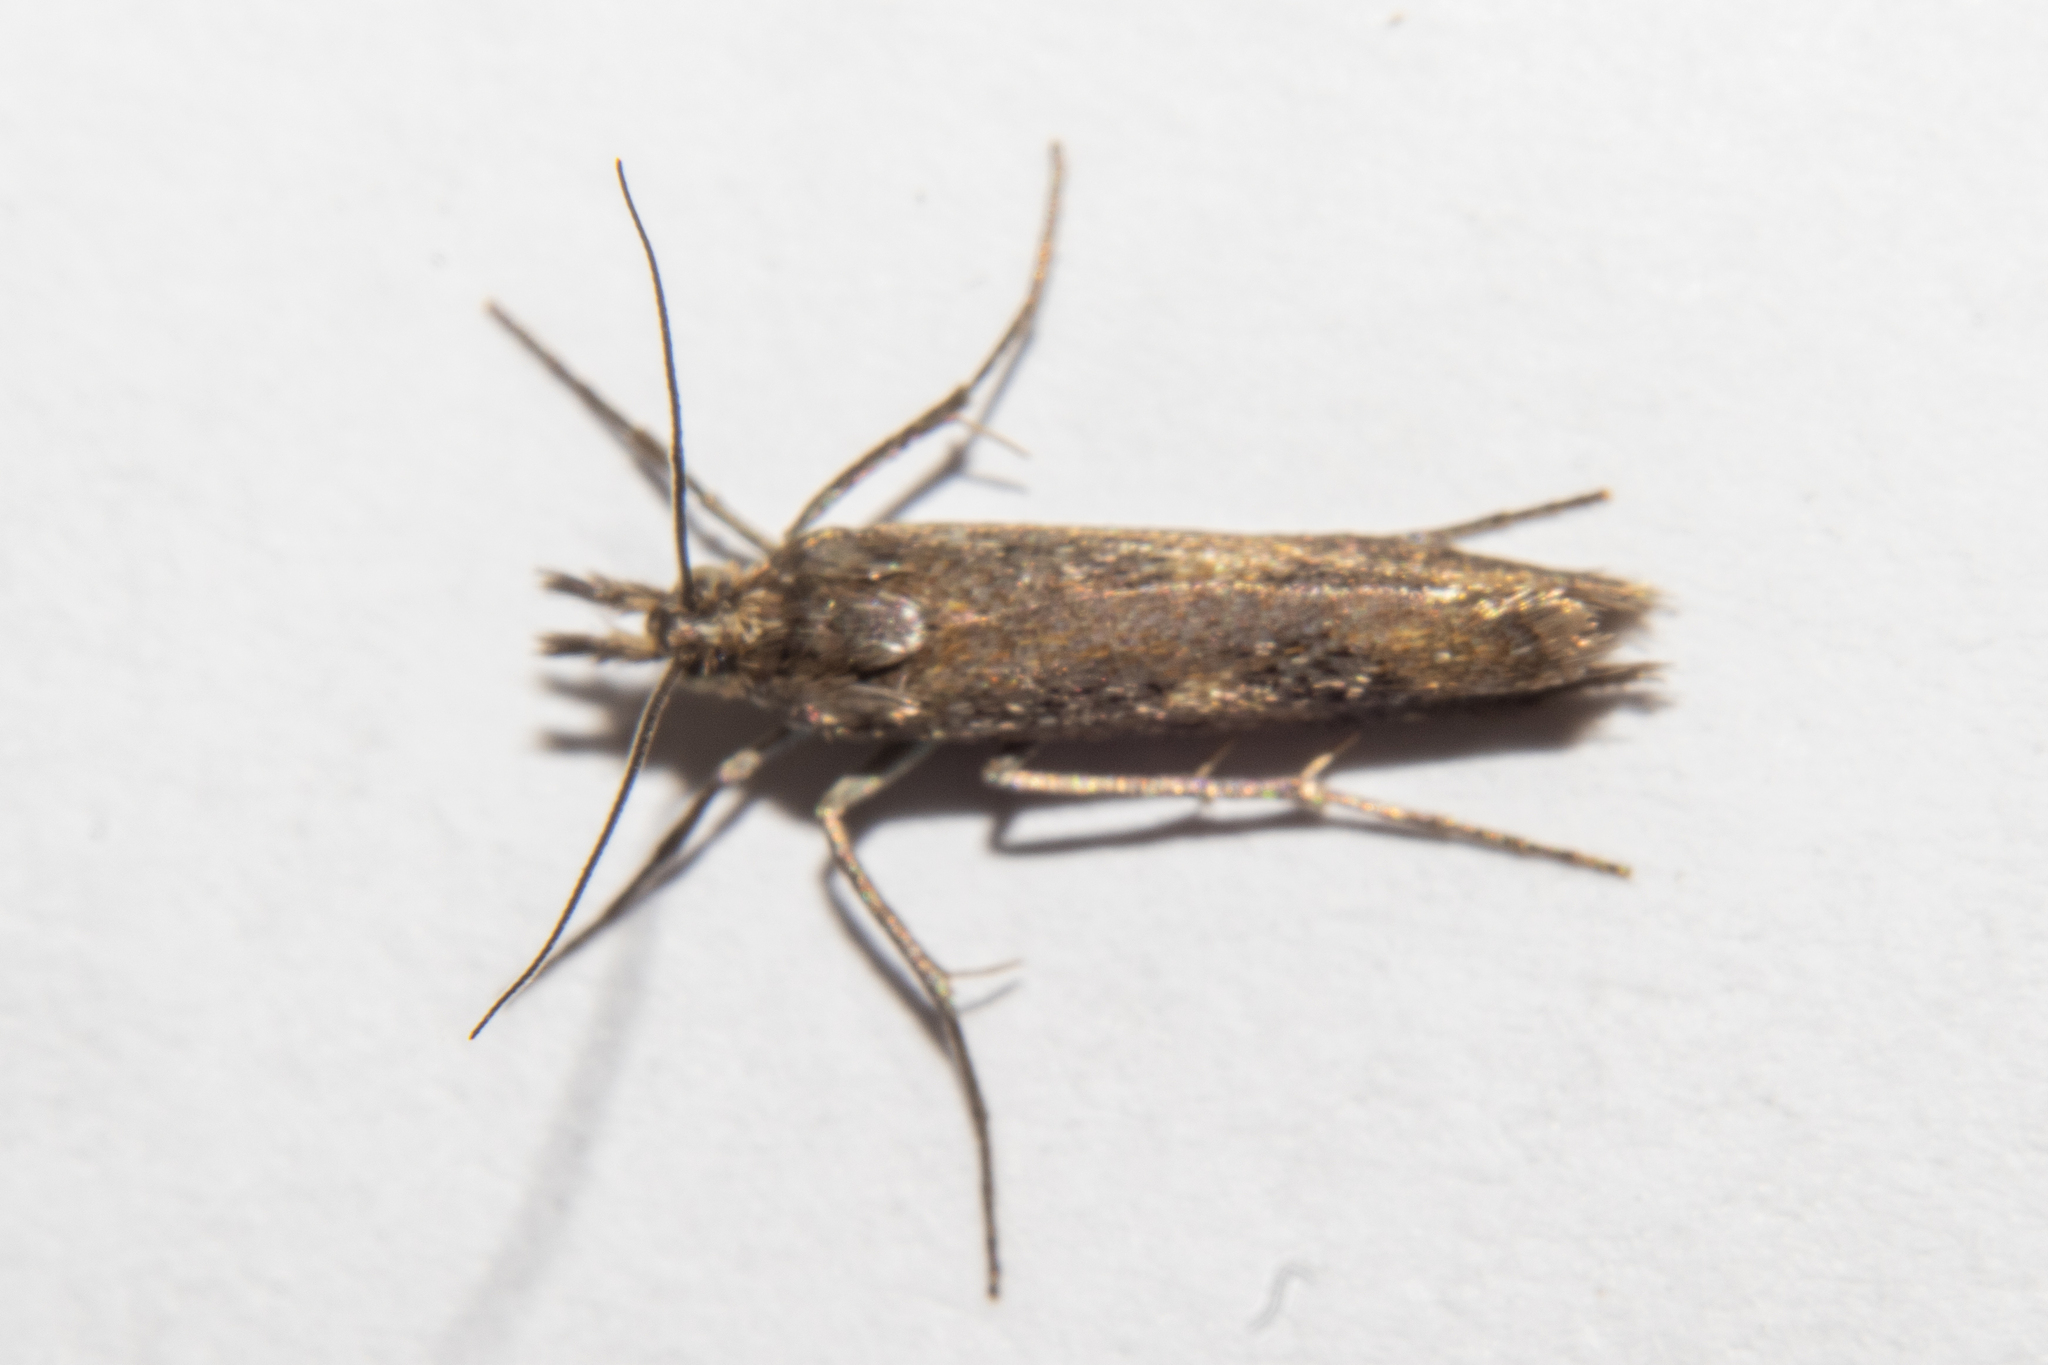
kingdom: Animalia
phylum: Arthropoda
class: Insecta
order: Lepidoptera
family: Crambidae
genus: Orocrambus
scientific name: Orocrambus corruptus
